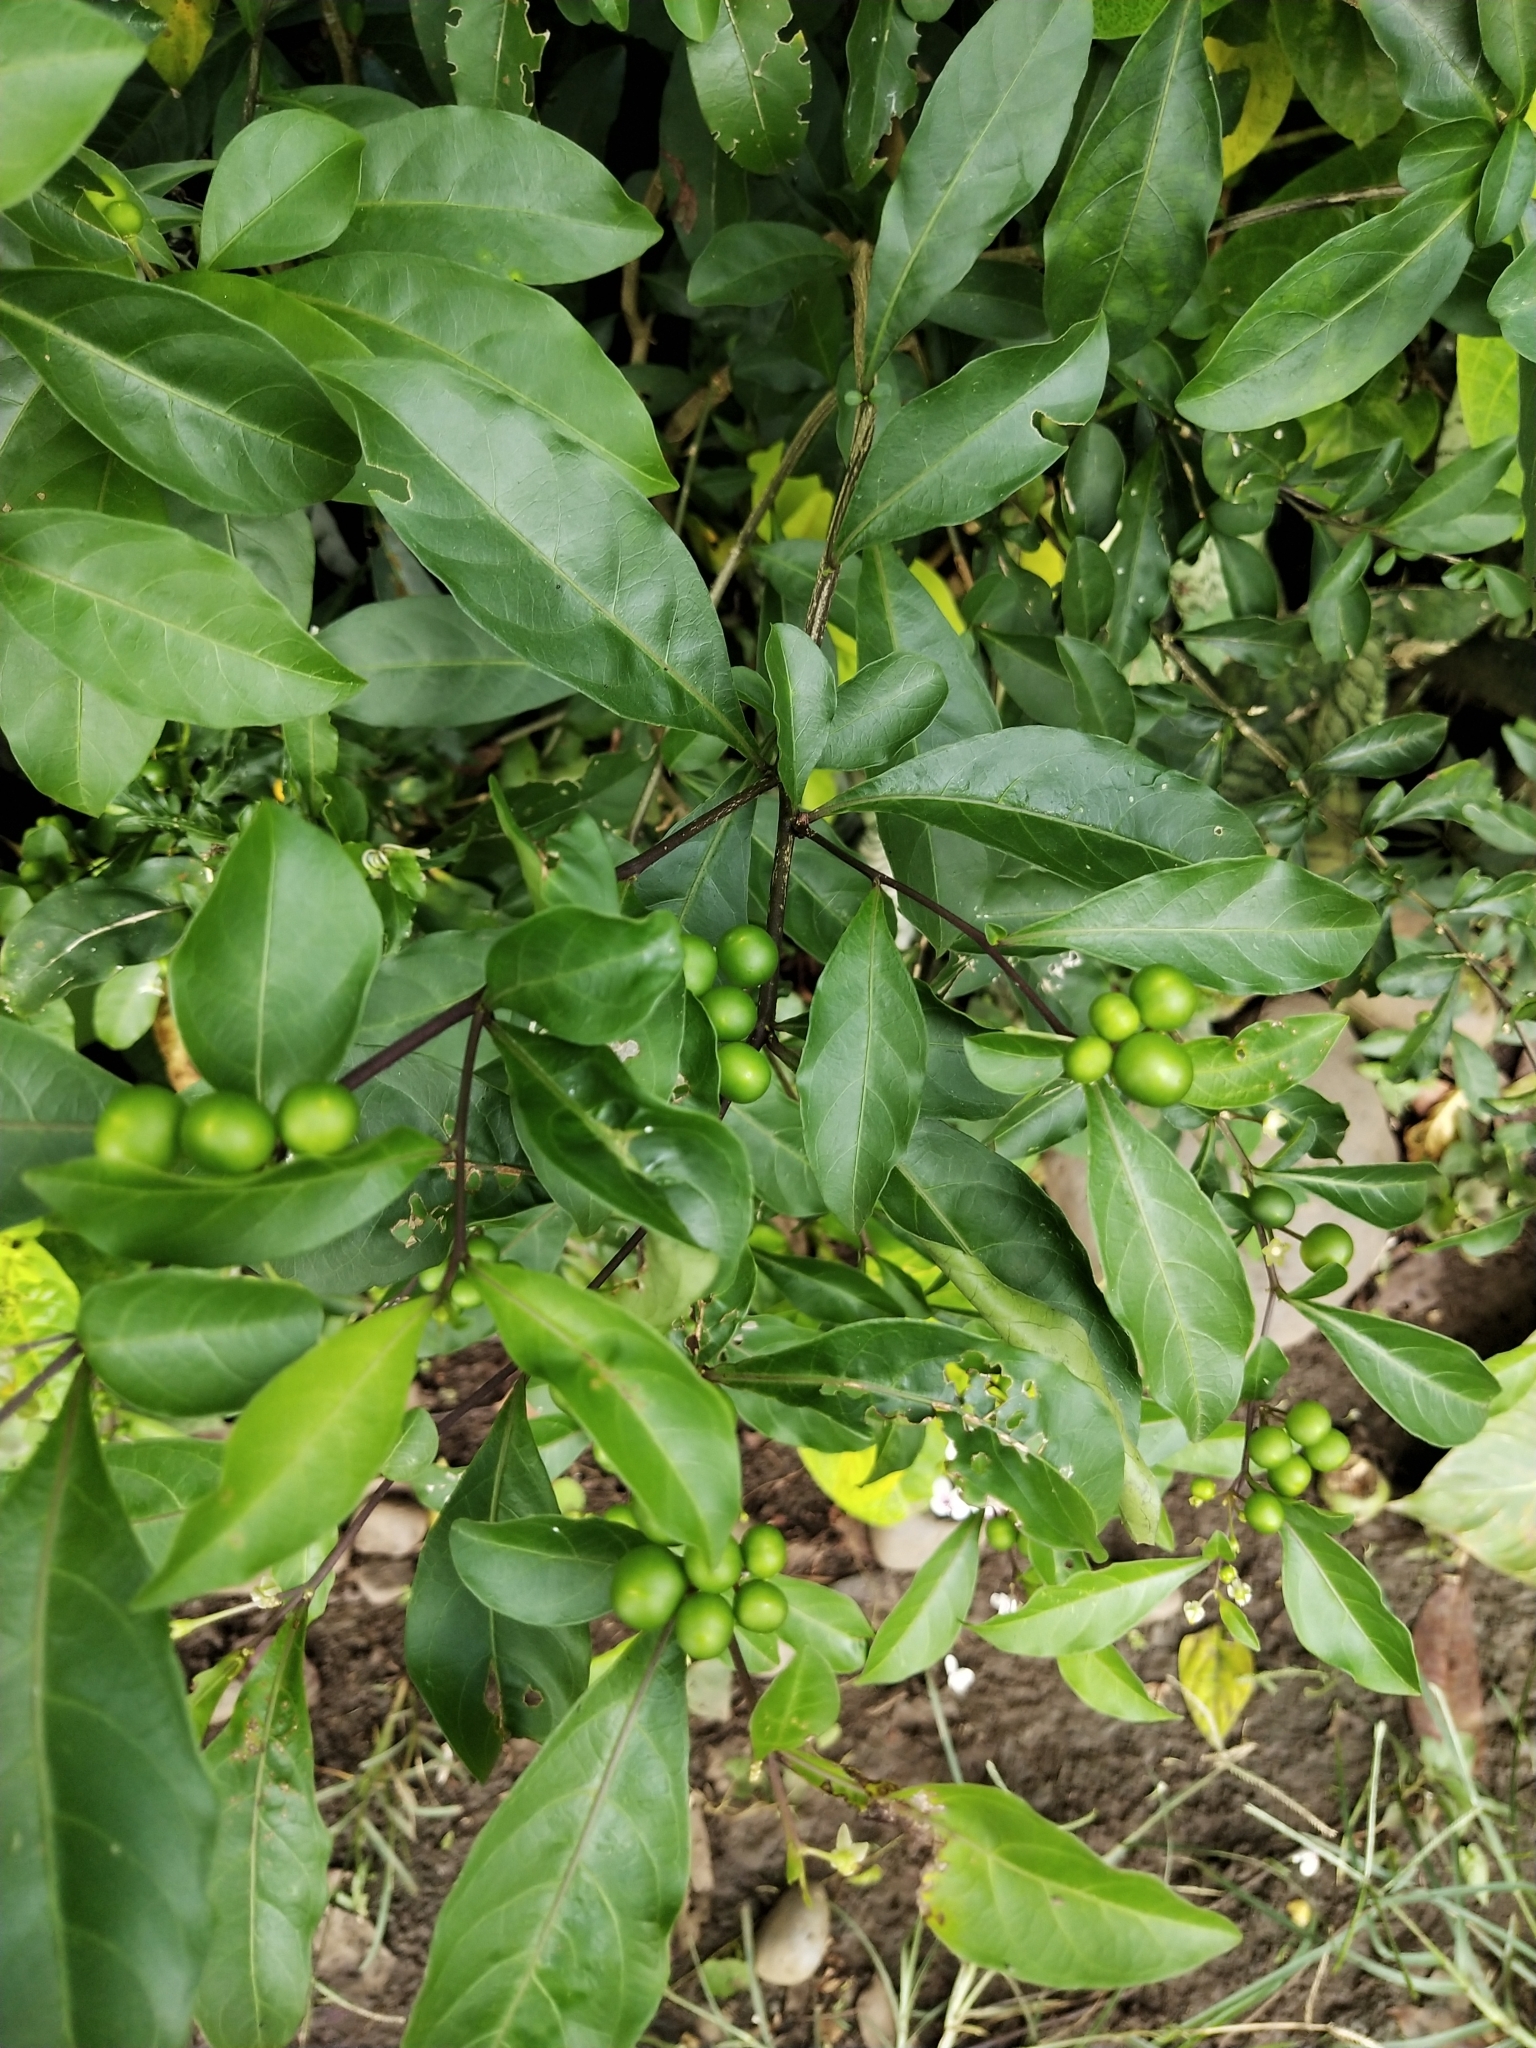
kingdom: Plantae
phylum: Tracheophyta
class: Magnoliopsida
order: Solanales
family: Solanaceae
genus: Solanum
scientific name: Solanum diphyllum
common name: Twoleaf nightshade
